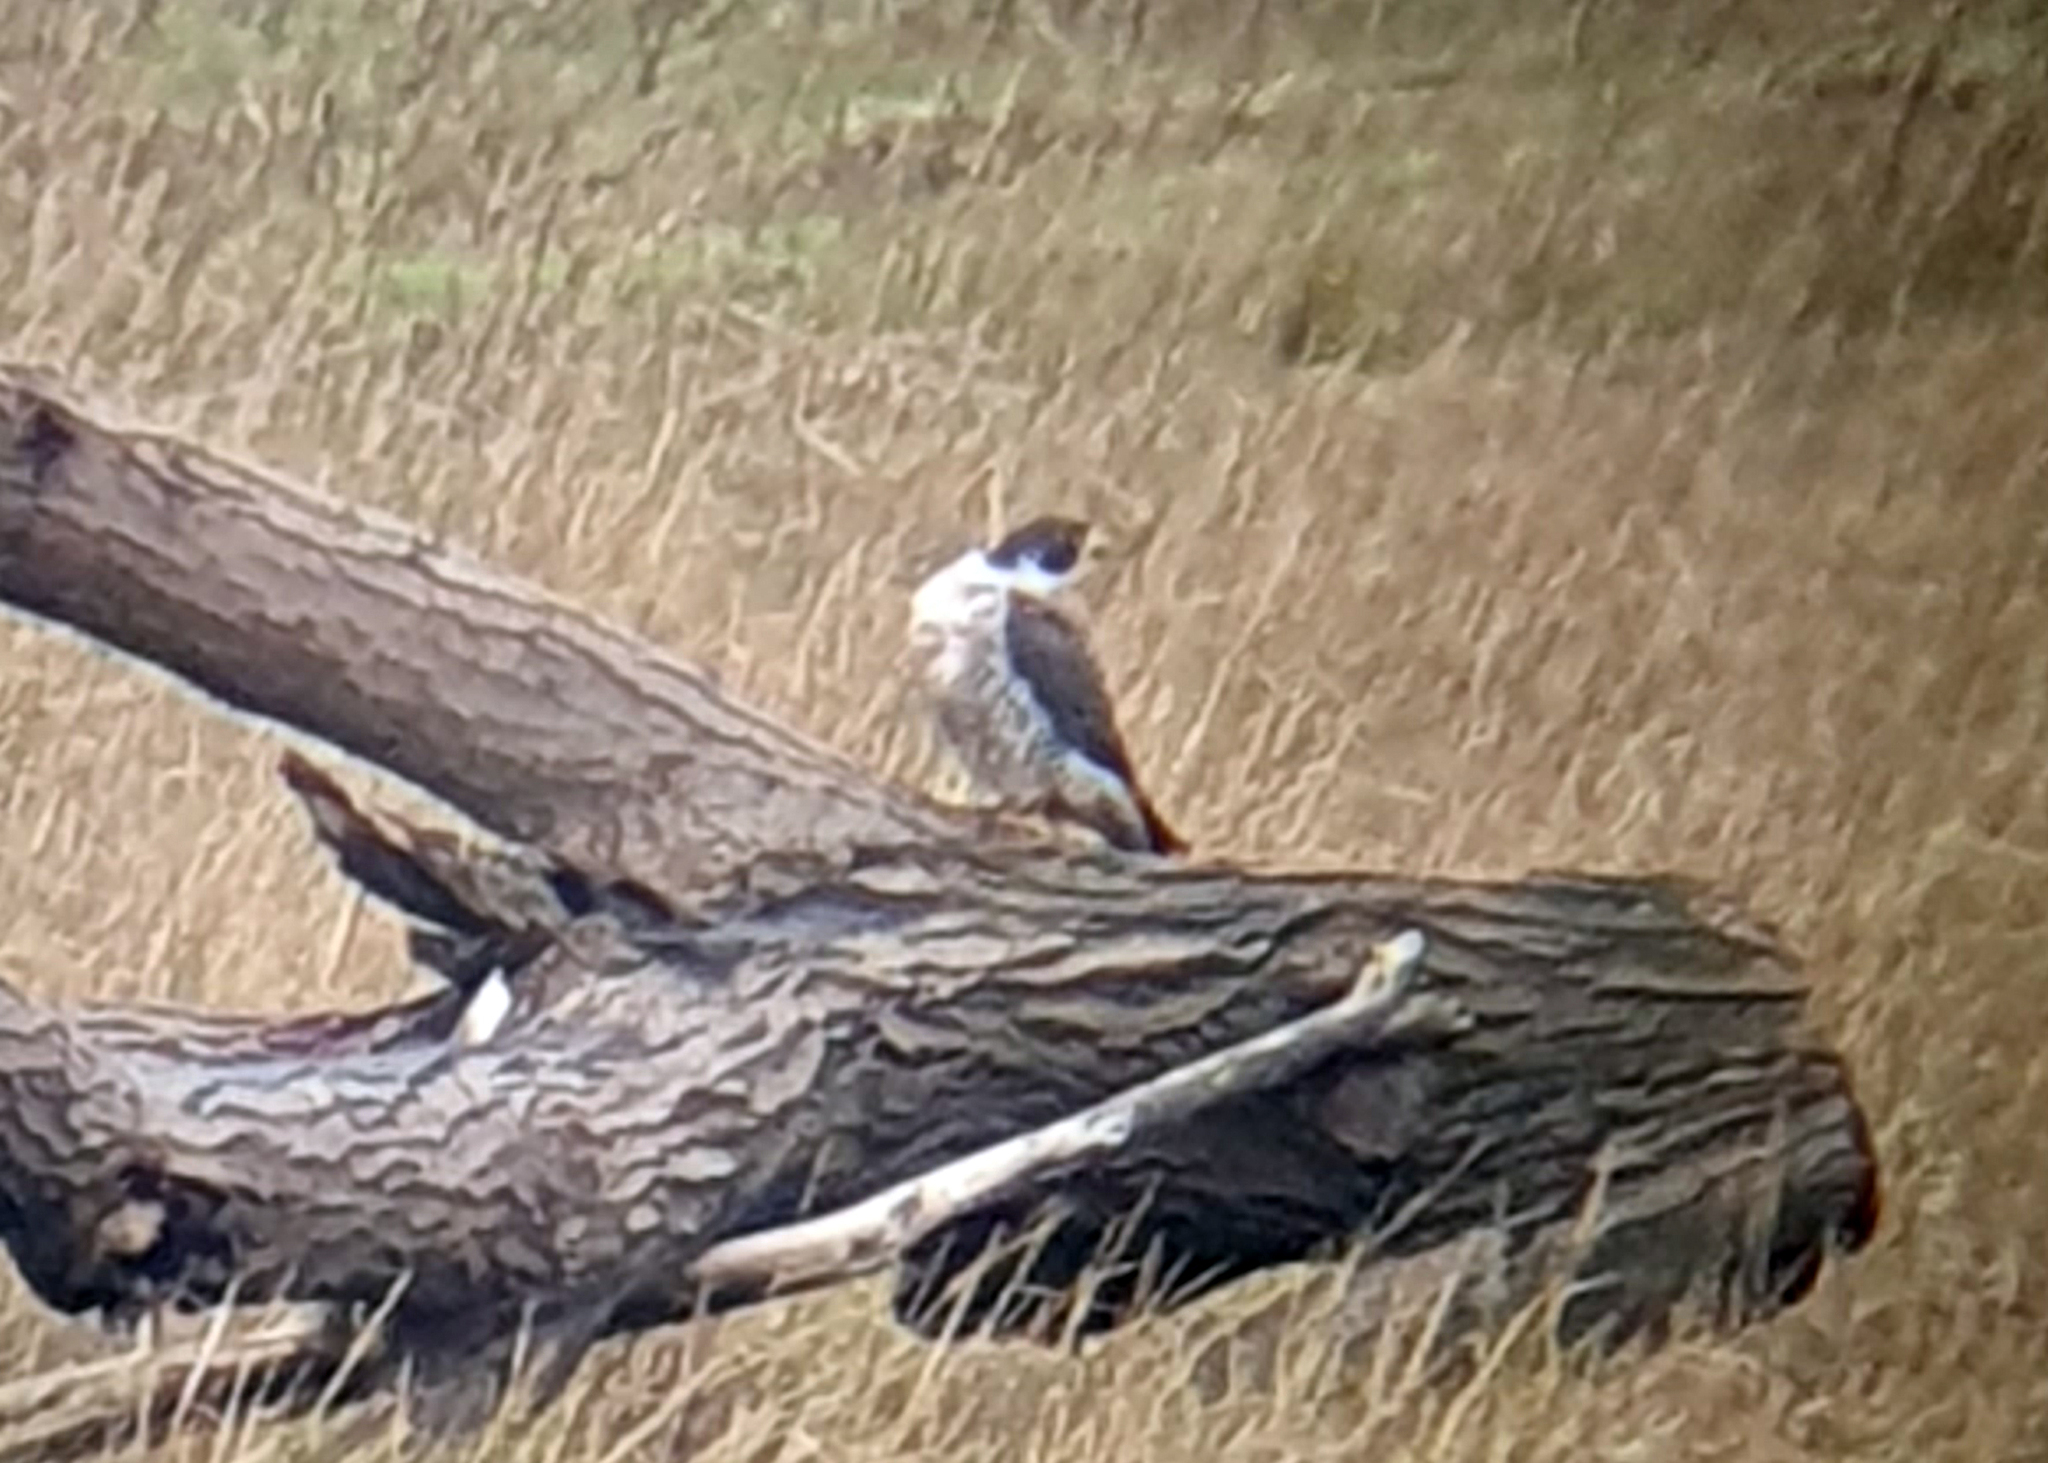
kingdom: Animalia
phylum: Chordata
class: Aves
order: Falconiformes
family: Falconidae
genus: Falco
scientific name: Falco peregrinus
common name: Peregrine falcon
